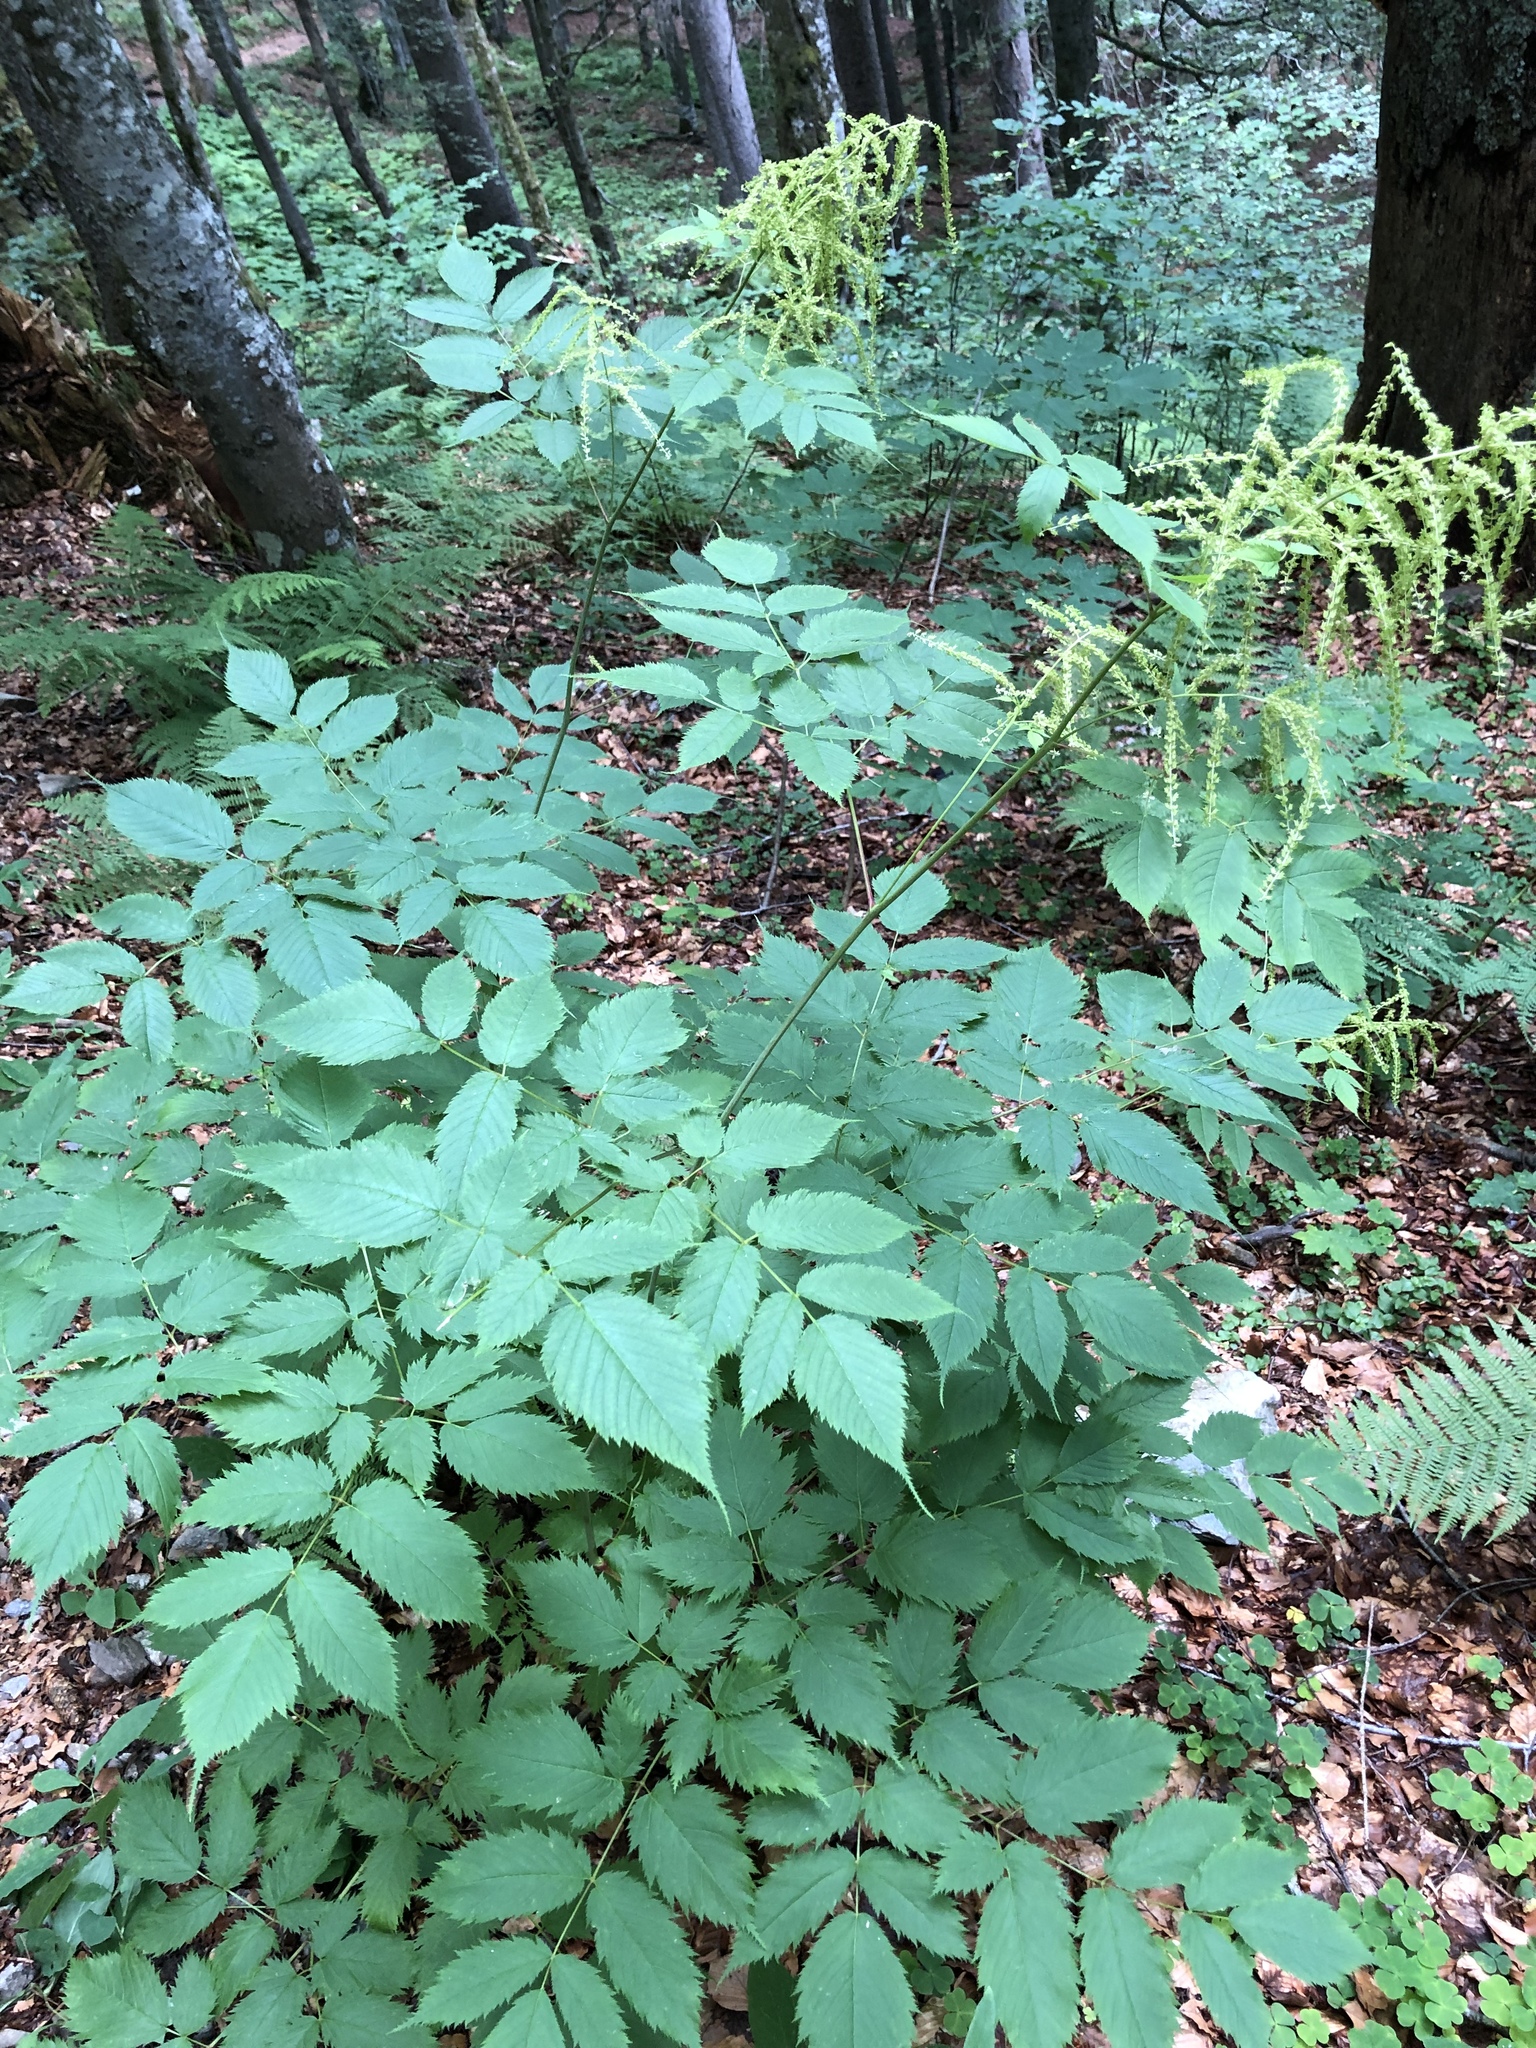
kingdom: Plantae
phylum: Tracheophyta
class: Magnoliopsida
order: Rosales
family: Rosaceae
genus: Aruncus
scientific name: Aruncus dioicus
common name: Buck's-beard
